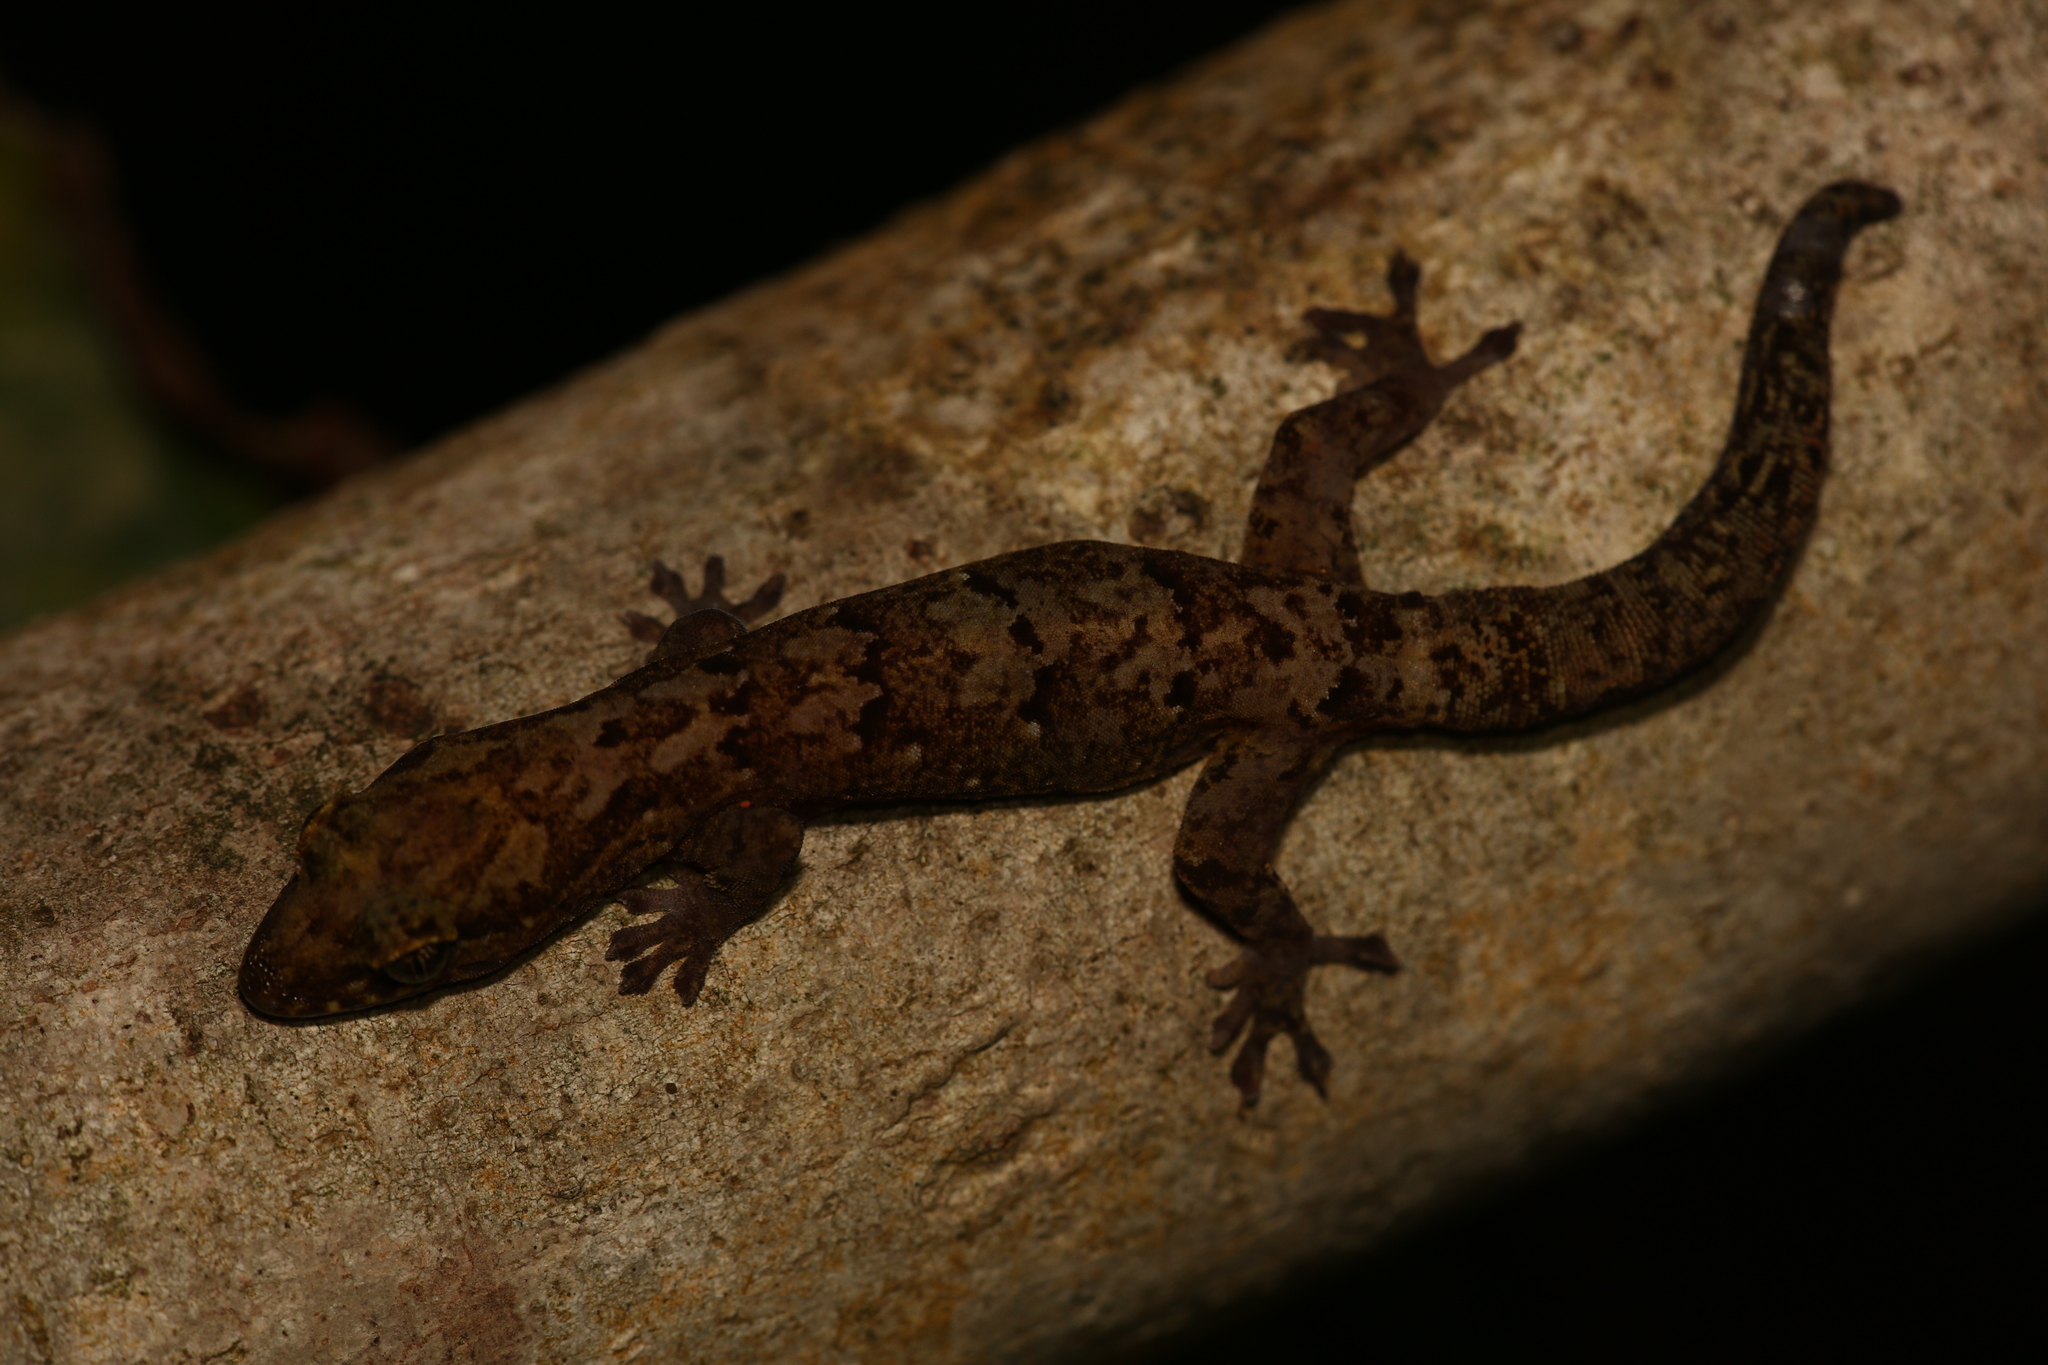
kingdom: Animalia
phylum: Chordata
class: Squamata
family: Diplodactylidae
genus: Bavayia
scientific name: Bavayia
